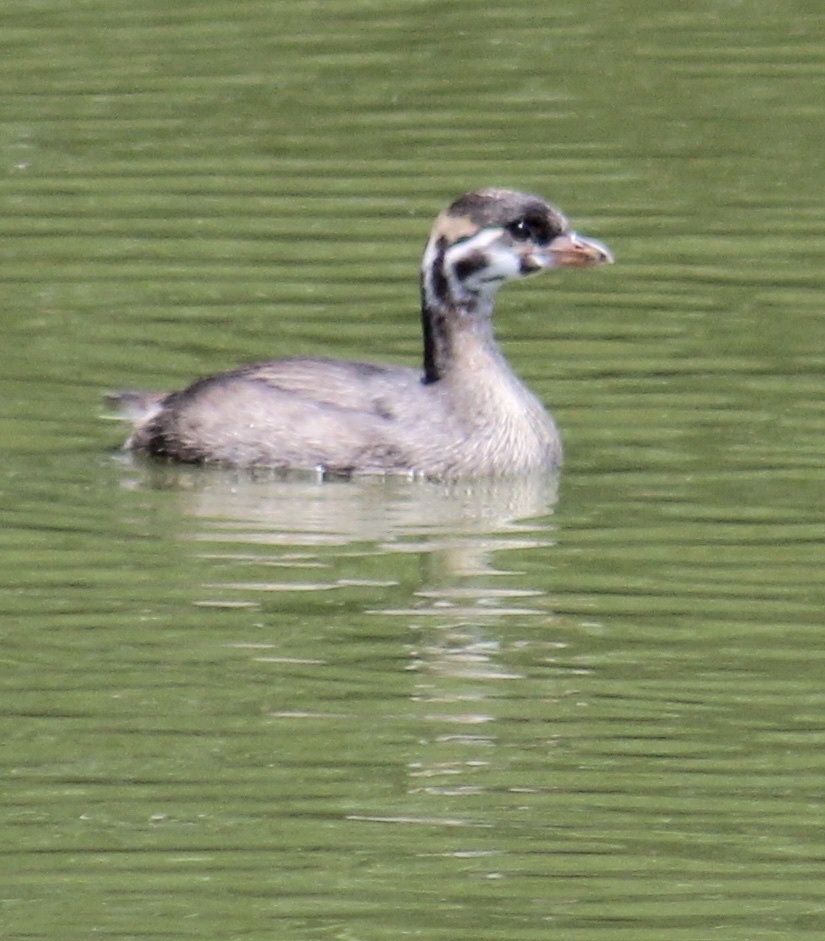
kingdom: Animalia
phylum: Chordata
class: Aves
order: Podicipediformes
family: Podicipedidae
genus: Podilymbus
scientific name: Podilymbus podiceps
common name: Pied-billed grebe
